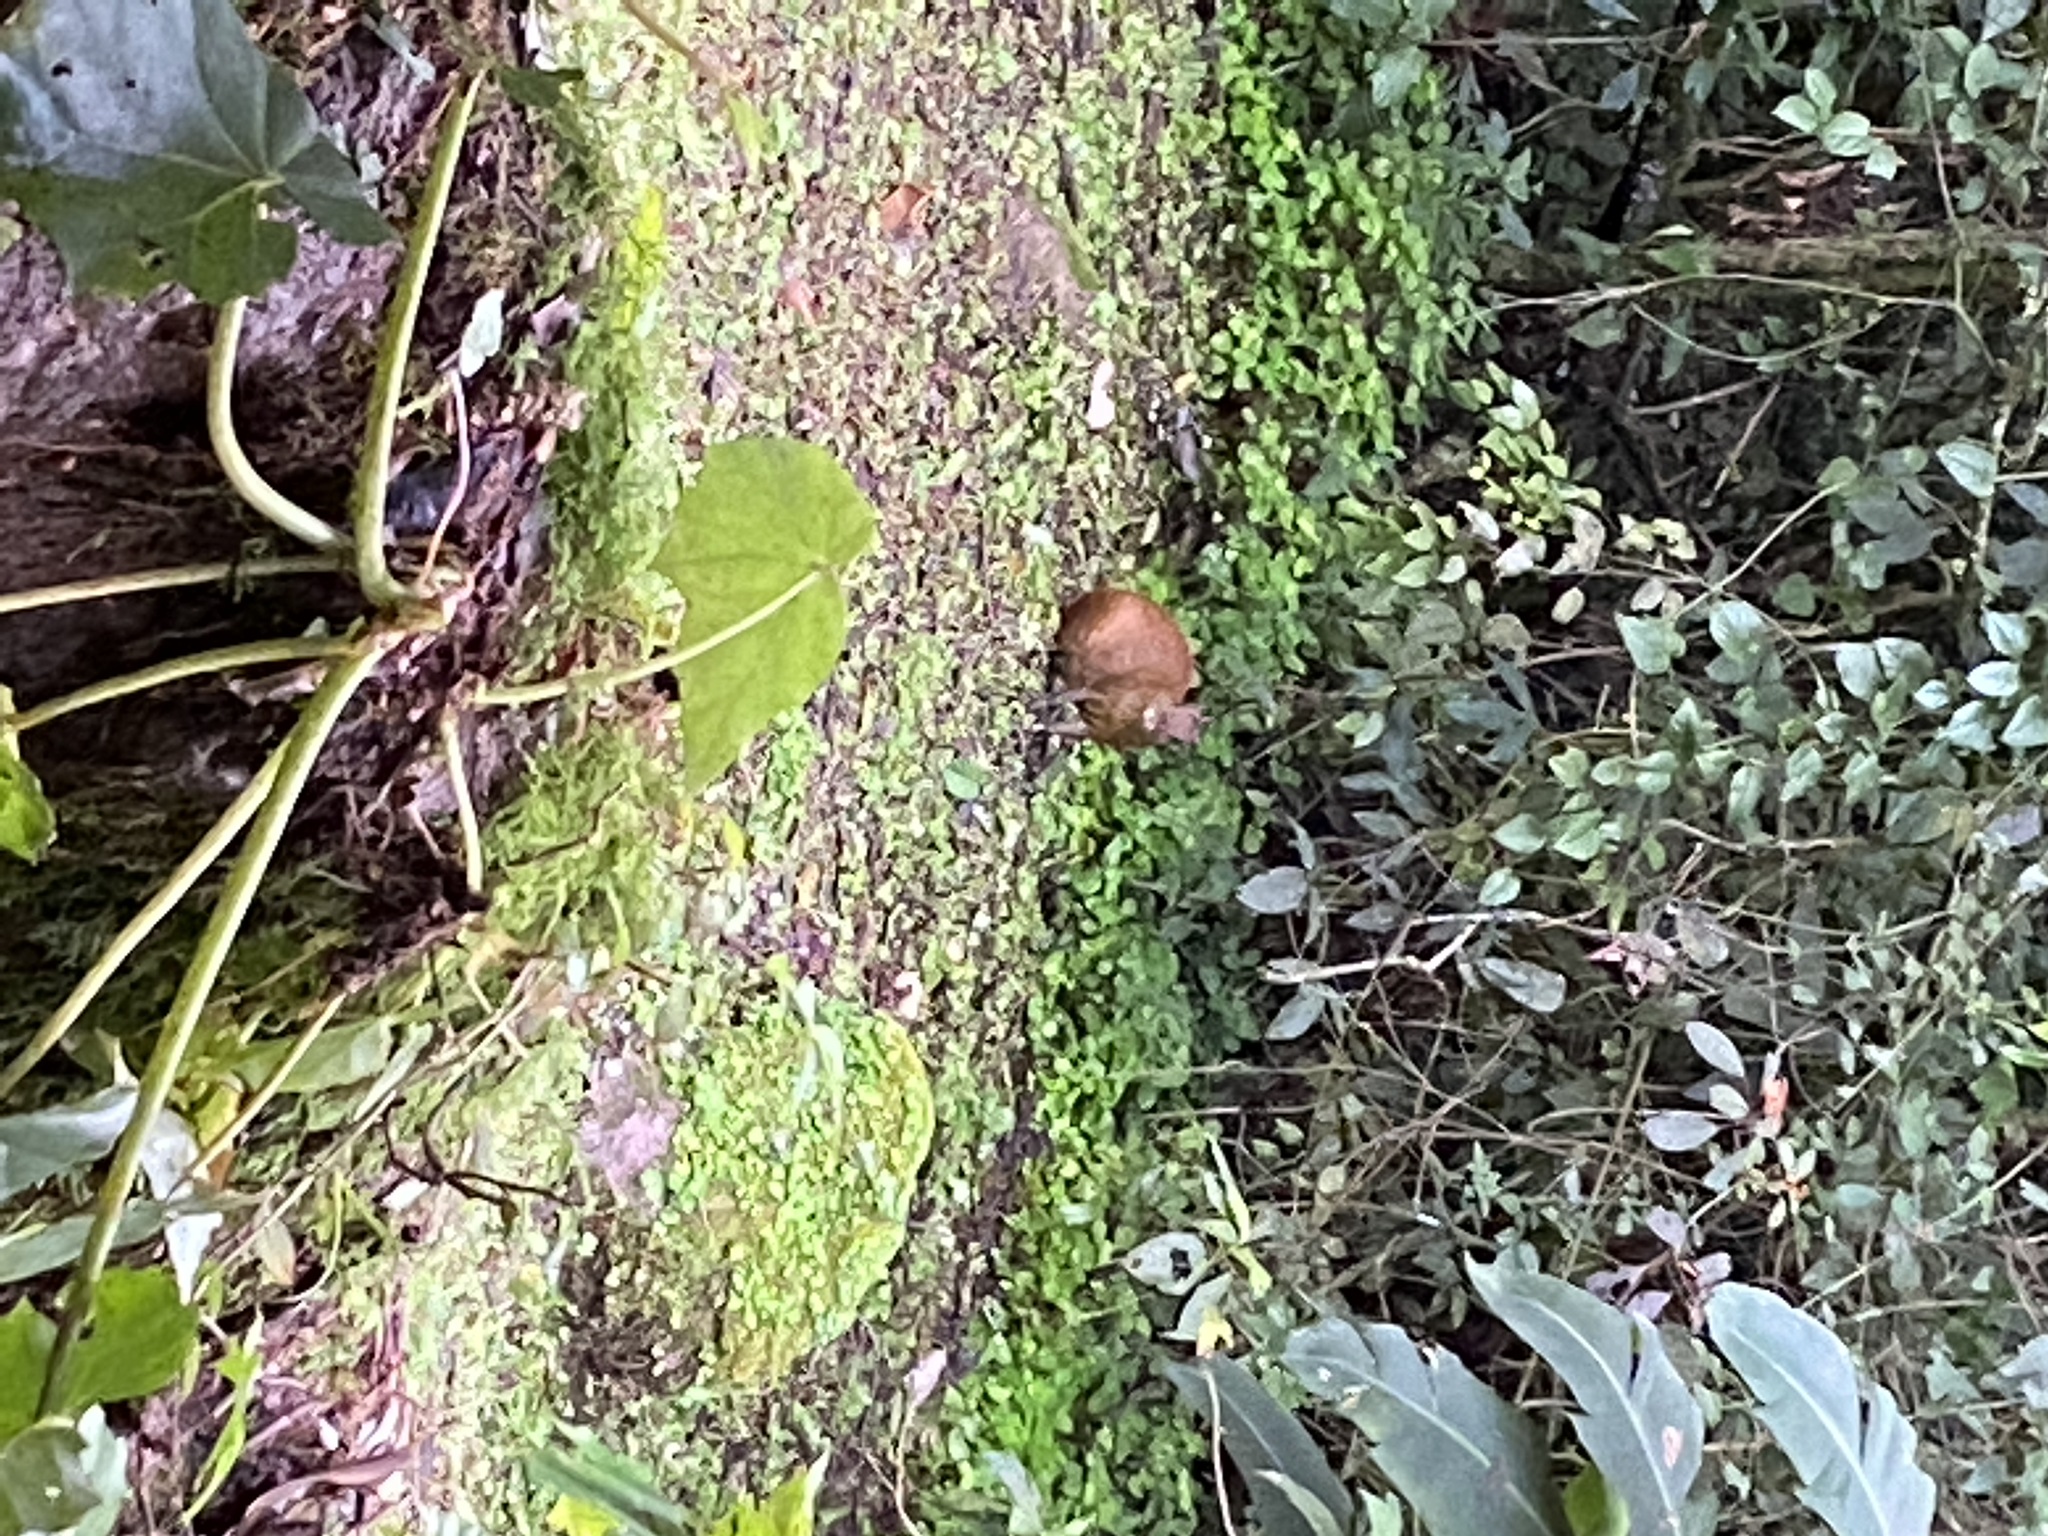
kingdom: Animalia
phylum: Chordata
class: Mammalia
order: Rodentia
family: Dasyproctidae
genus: Dasyprocta
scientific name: Dasyprocta punctata
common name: Central american agouti
